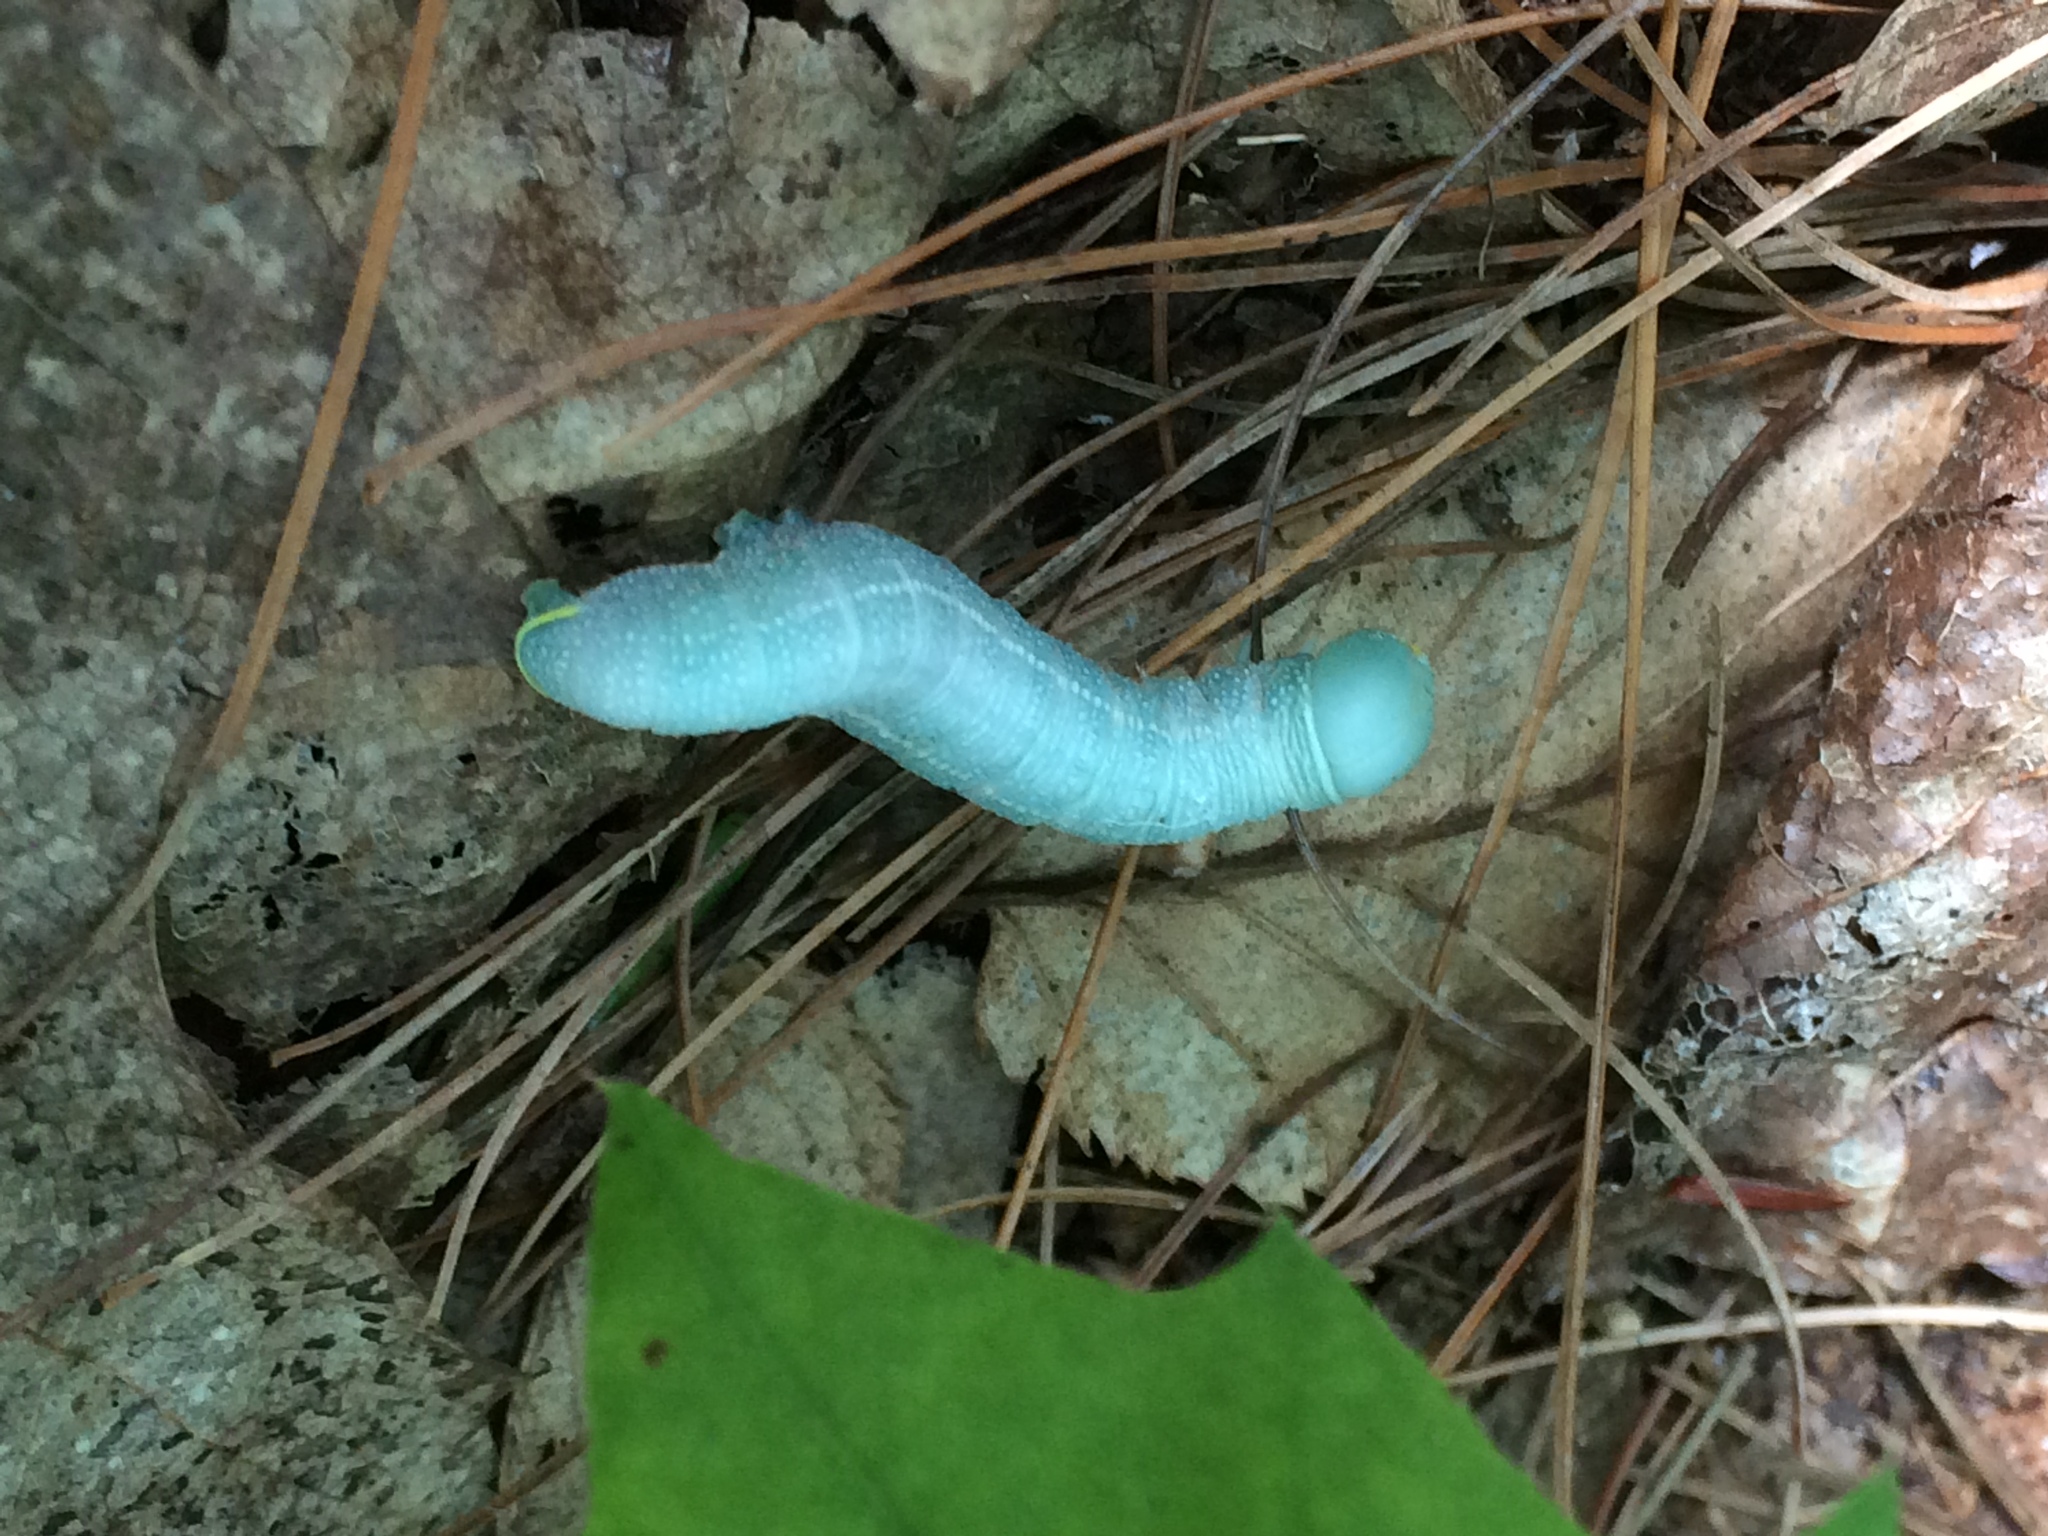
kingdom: Animalia
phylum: Arthropoda
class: Insecta
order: Lepidoptera
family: Notodontidae
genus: Nadata
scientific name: Nadata gibbosa
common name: White-dotted prominent
